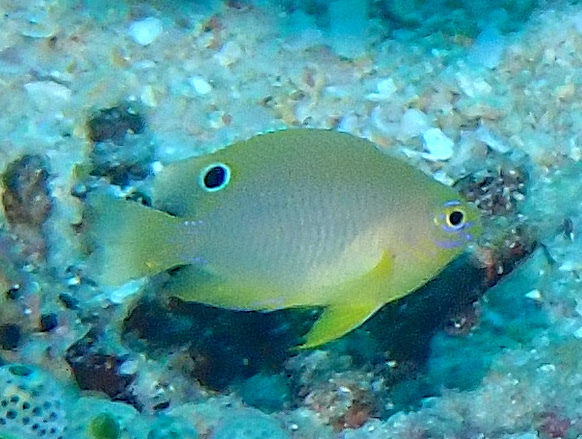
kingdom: Animalia
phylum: Chordata
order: Perciformes
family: Pomacentridae
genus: Pomacentrus
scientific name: Pomacentrus amboinensis
